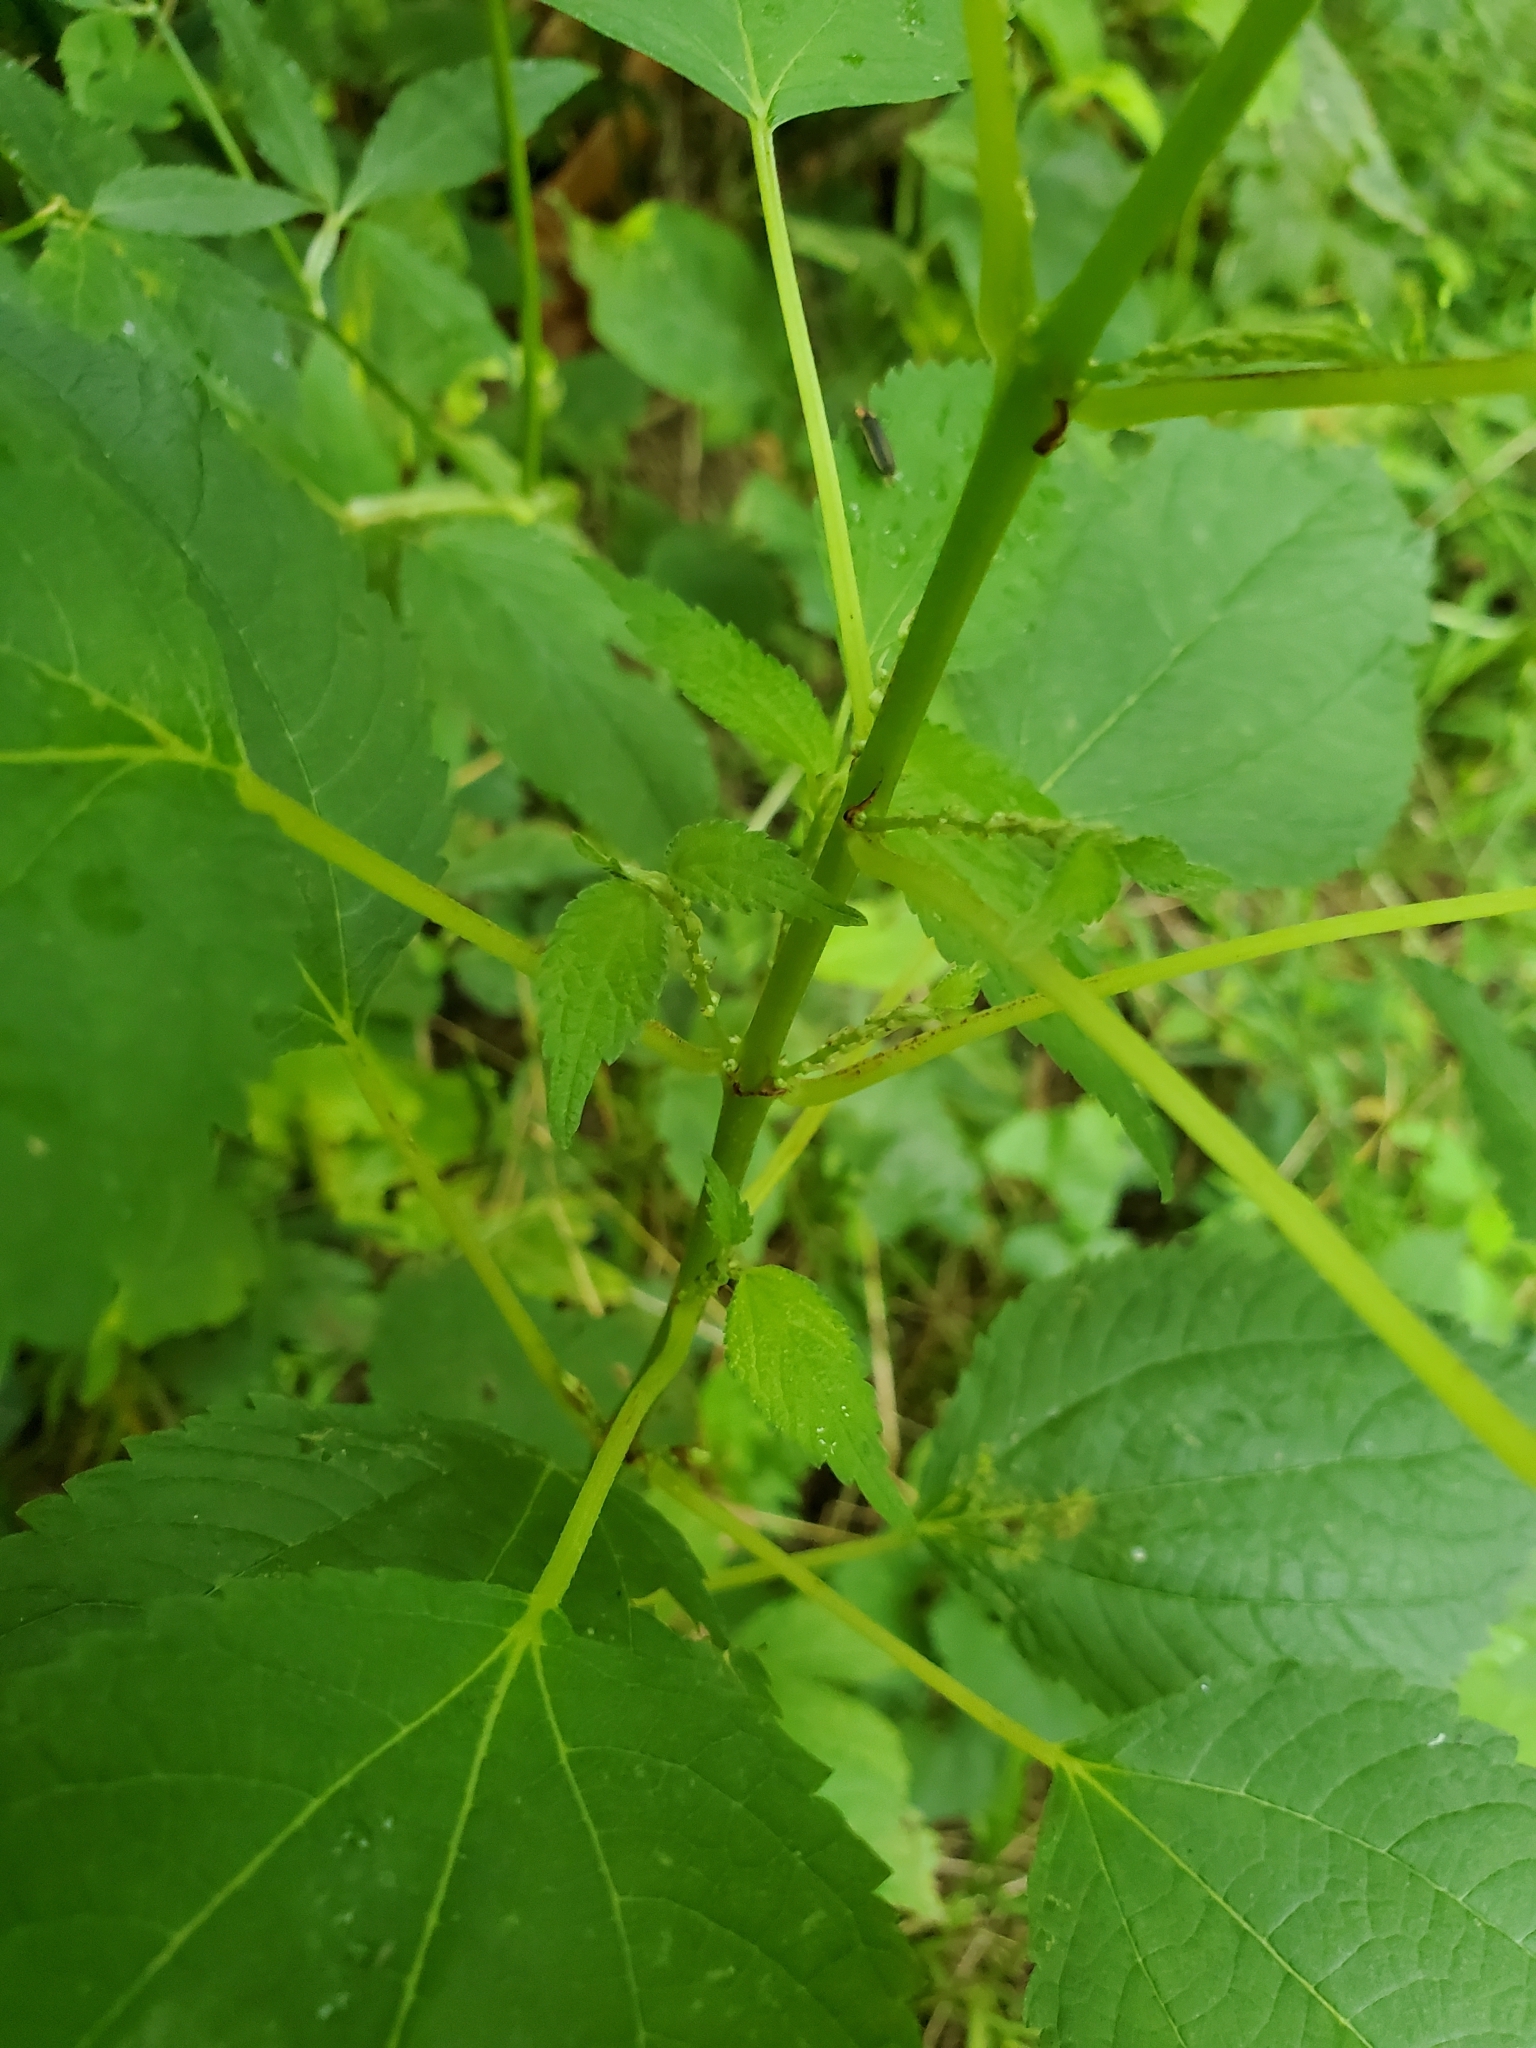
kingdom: Plantae
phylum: Tracheophyta
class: Magnoliopsida
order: Rosales
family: Urticaceae
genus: Boehmeria
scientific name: Boehmeria cylindrica
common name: Bog-hemp
